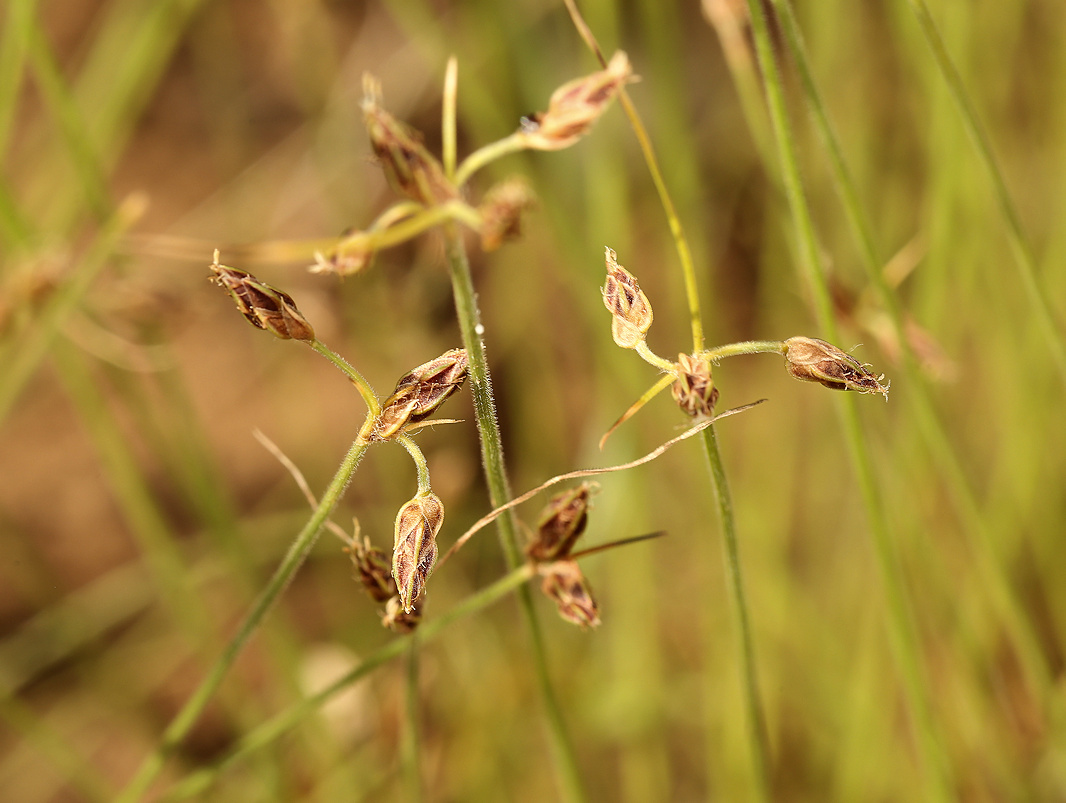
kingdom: Plantae
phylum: Tracheophyta
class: Liliopsida
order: Poales
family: Cyperaceae
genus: Bulbostylis
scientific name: Bulbostylis hispidula
